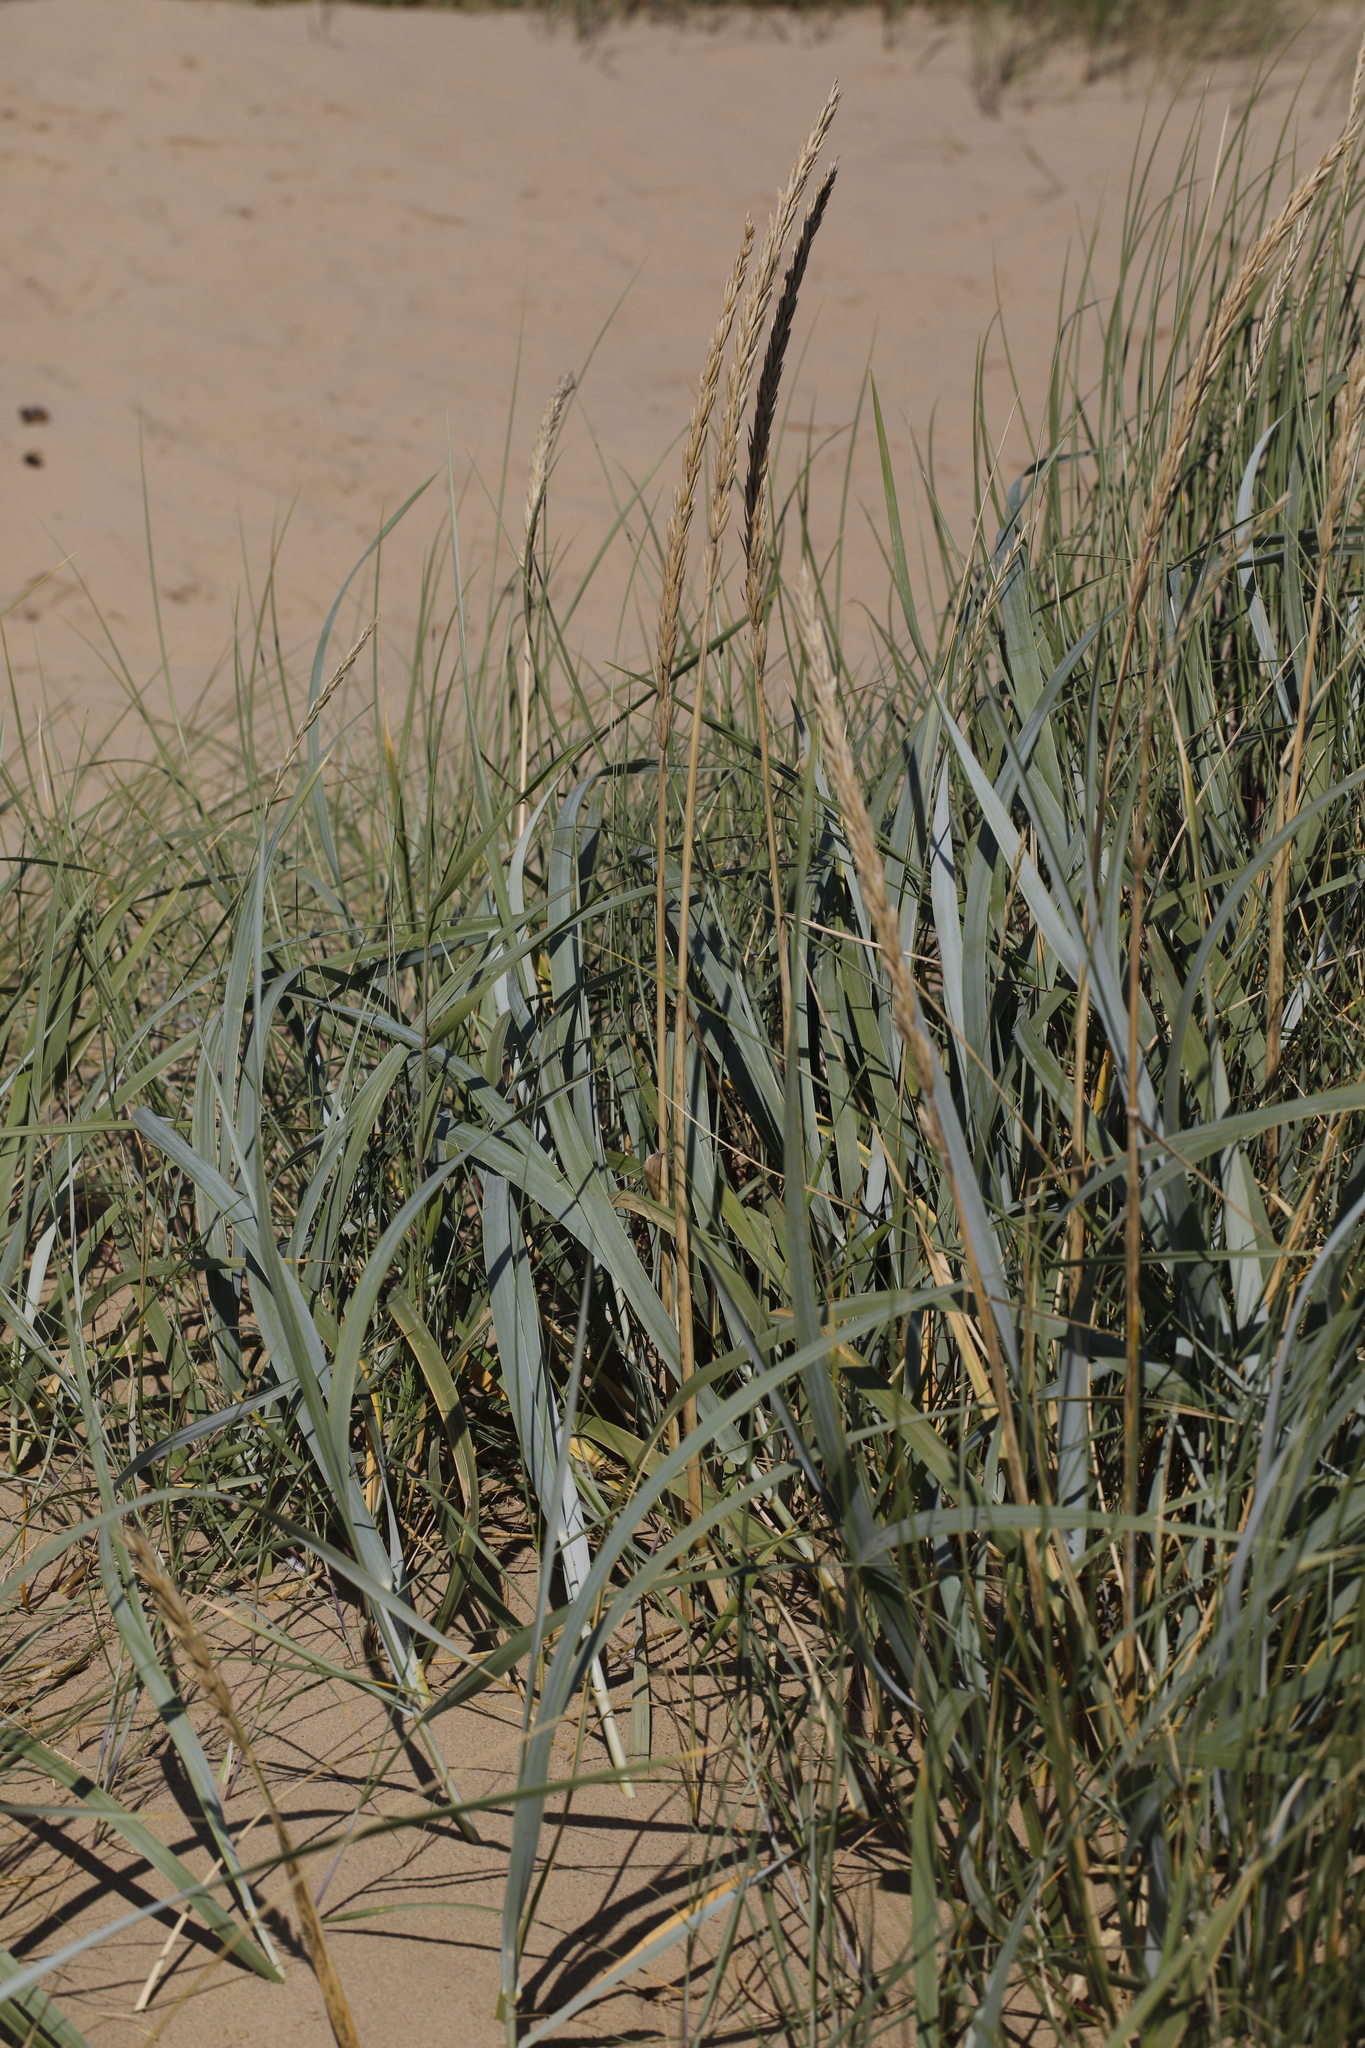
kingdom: Plantae
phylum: Tracheophyta
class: Liliopsida
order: Poales
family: Poaceae
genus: Leymus
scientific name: Leymus arenarius
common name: Lyme-grass
